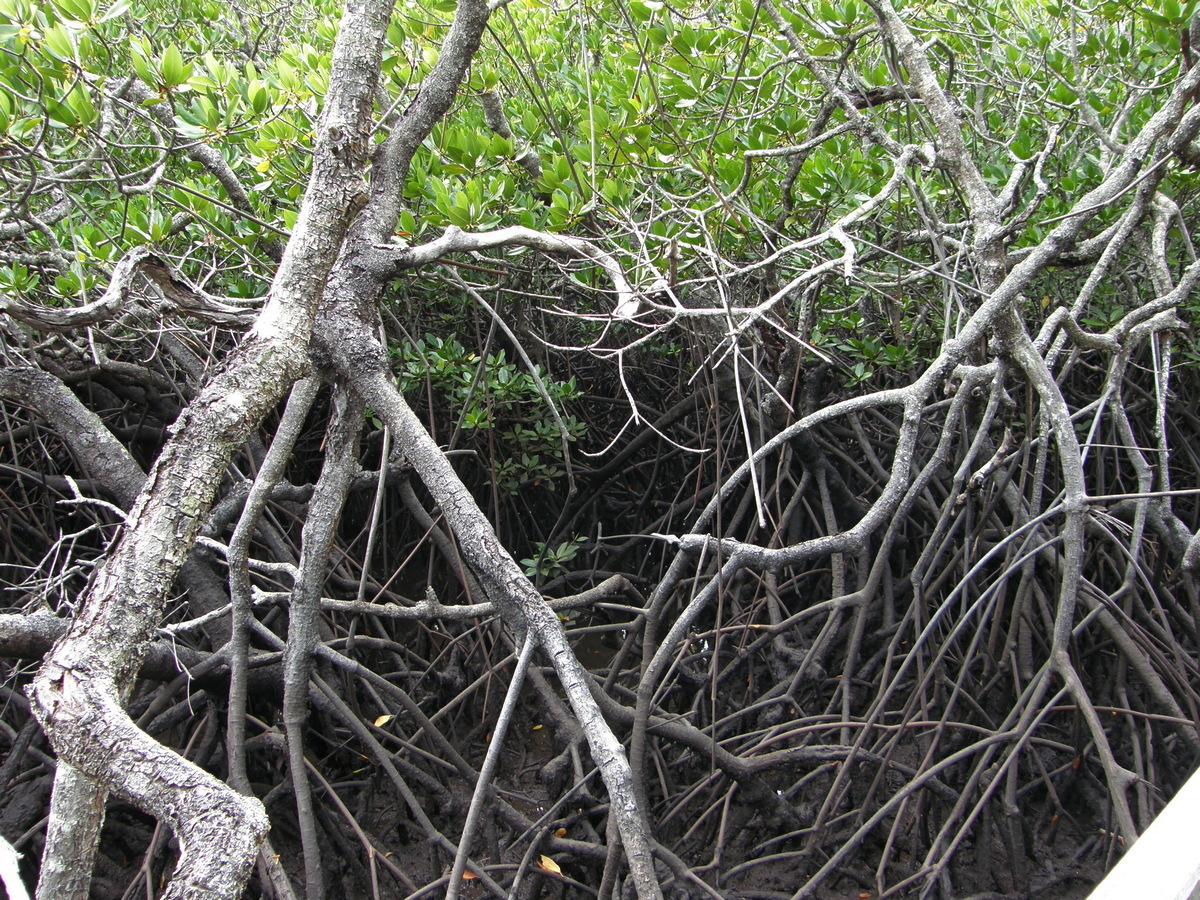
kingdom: Plantae
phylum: Tracheophyta
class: Magnoliopsida
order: Malpighiales
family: Rhizophoraceae
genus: Rhizophora
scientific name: Rhizophora stylosa
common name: Red mangrove
